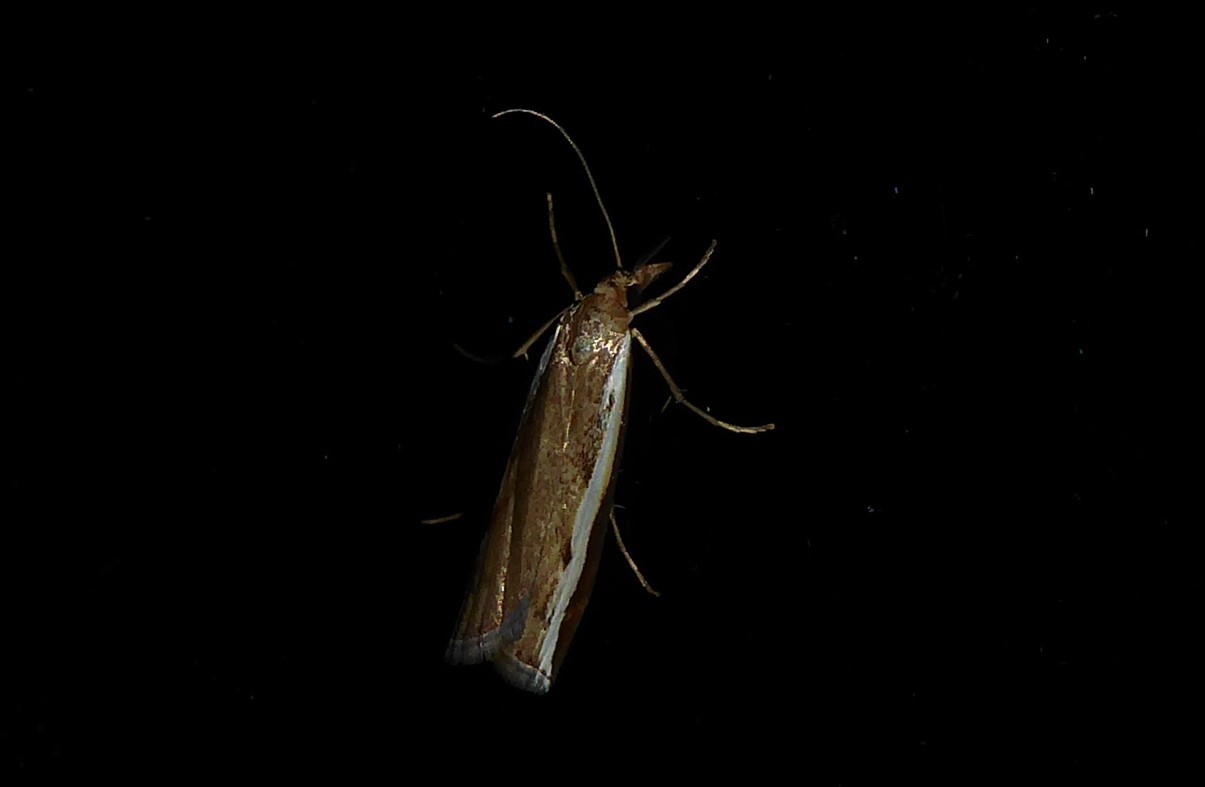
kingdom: Animalia
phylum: Arthropoda
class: Insecta
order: Lepidoptera
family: Crambidae
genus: Orocrambus
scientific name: Orocrambus flexuosellus
